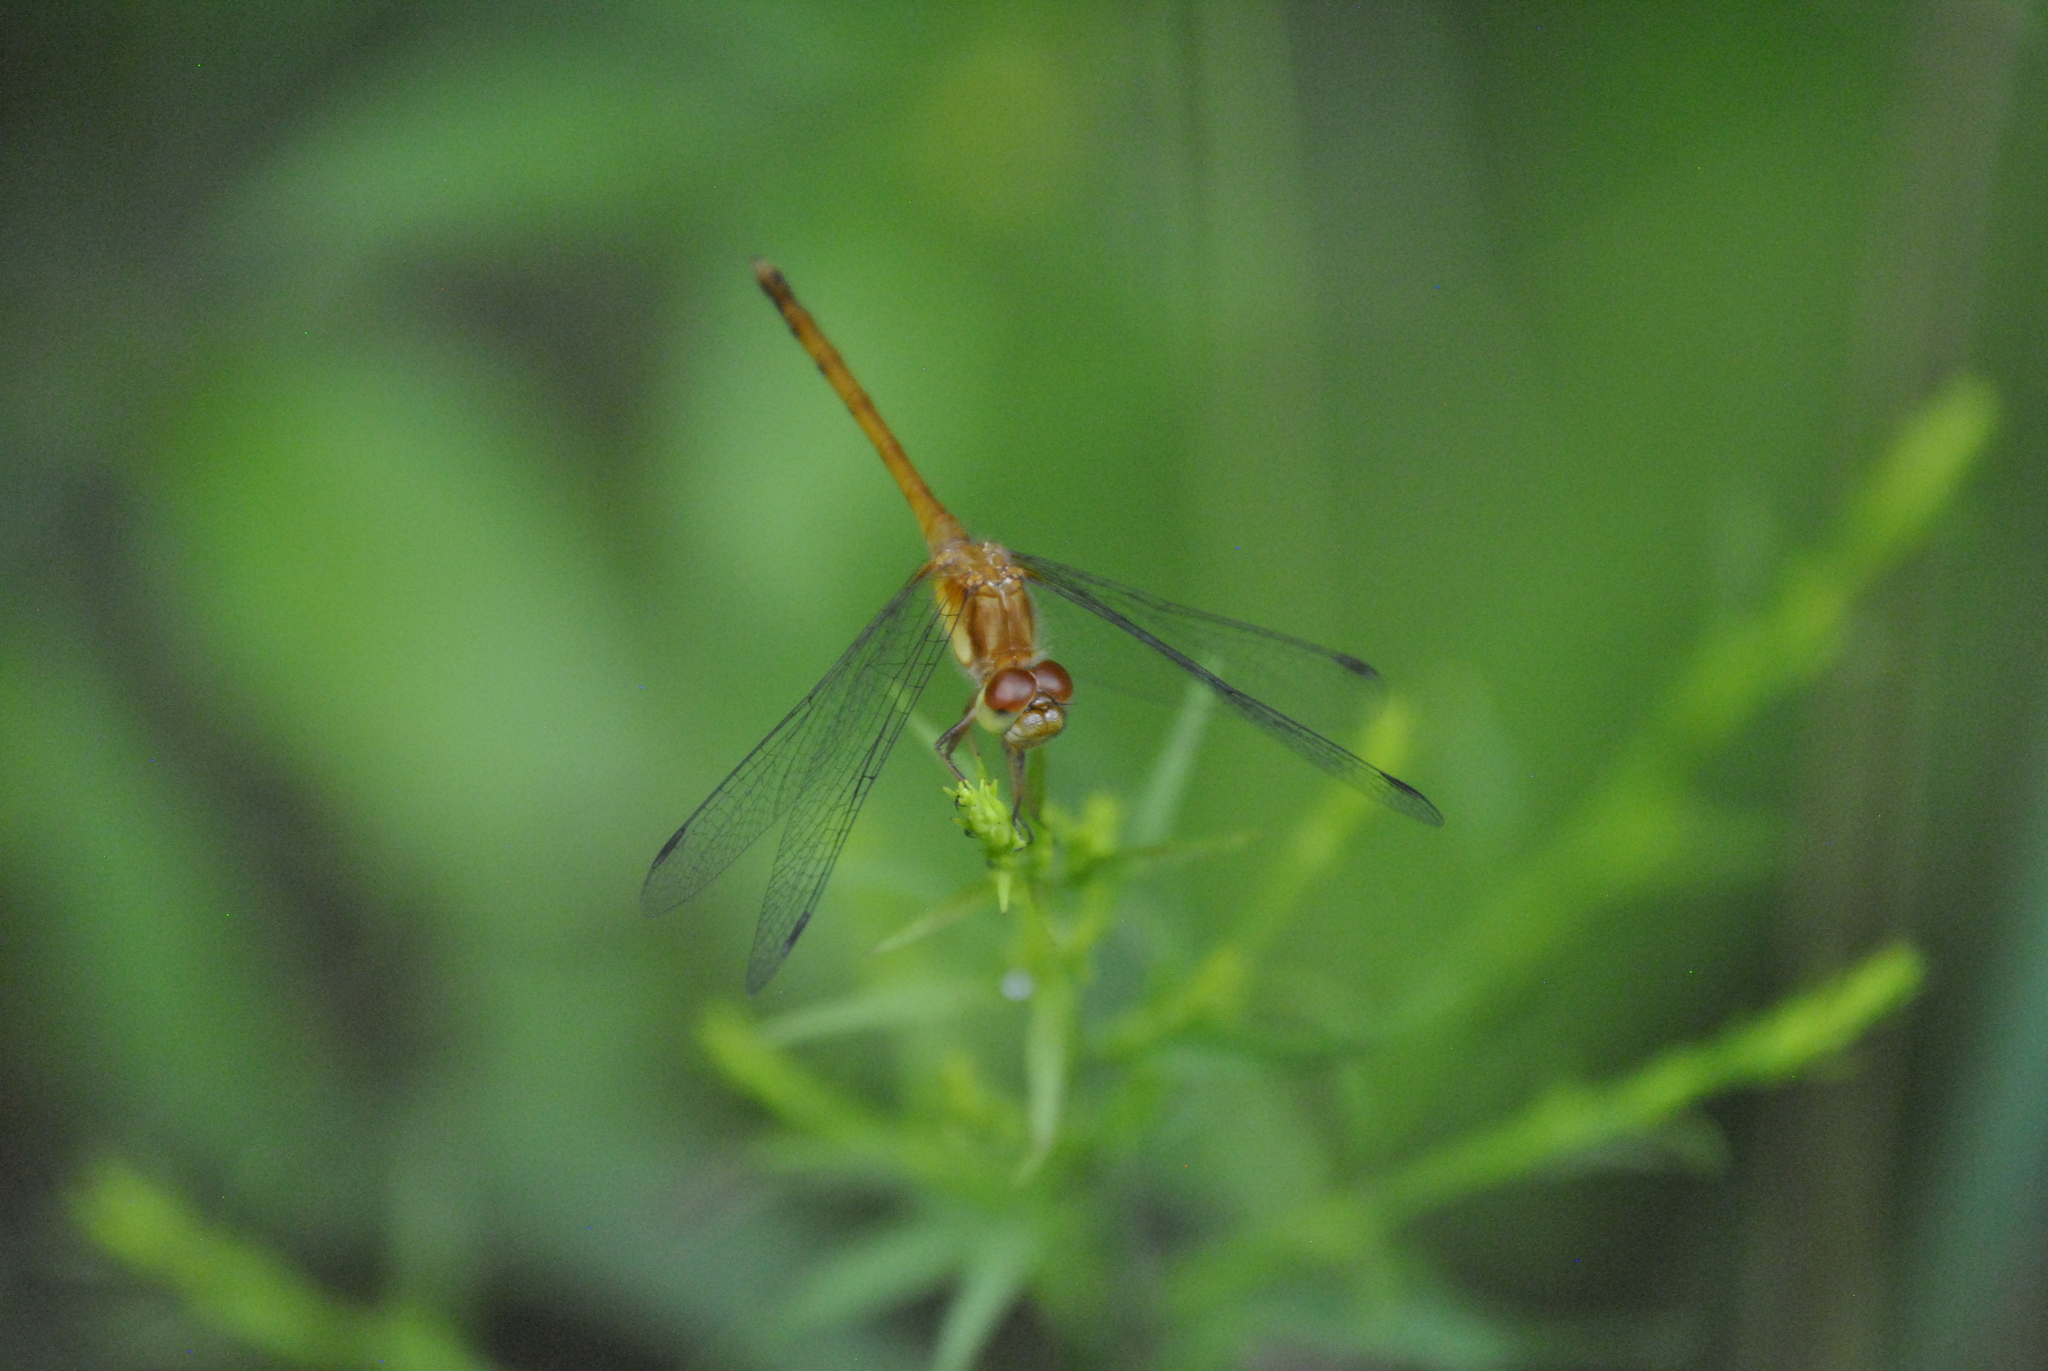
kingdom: Animalia
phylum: Arthropoda
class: Insecta
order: Odonata
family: Libellulidae
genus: Sympetrum
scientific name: Sympetrum vicinum
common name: Autumn meadowhawk
